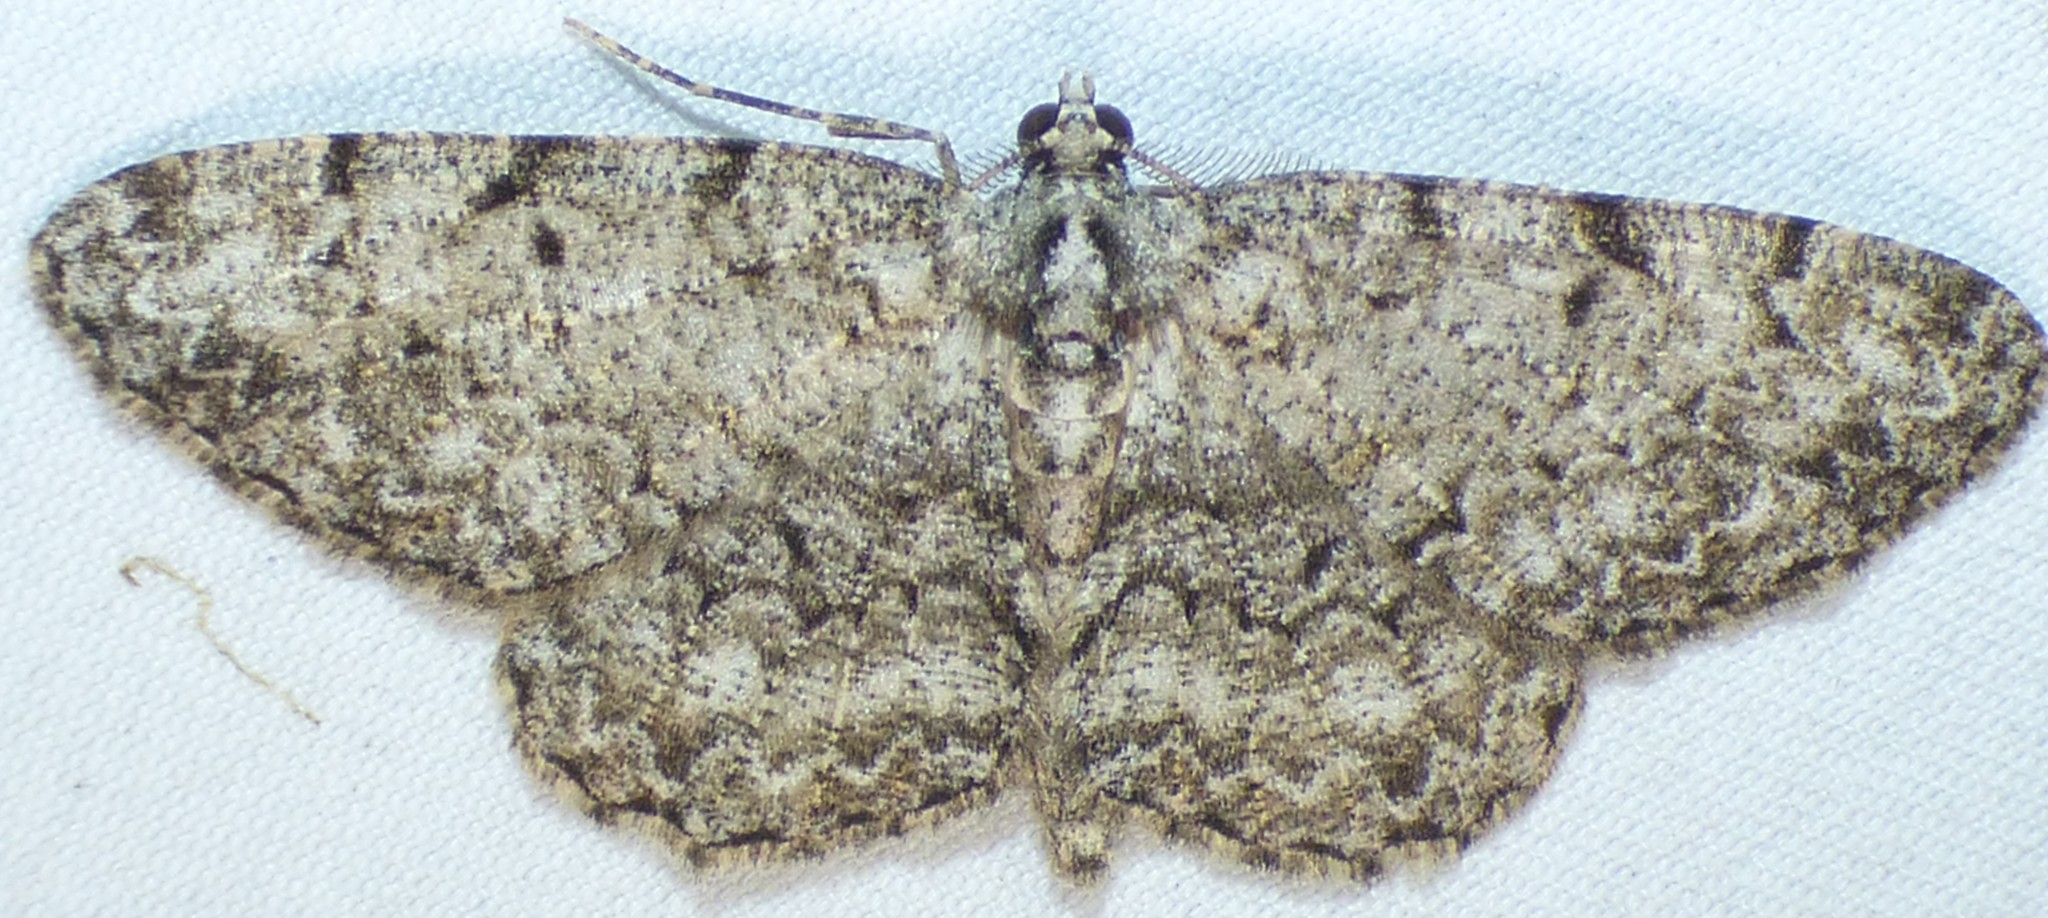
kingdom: Animalia
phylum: Arthropoda
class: Insecta
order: Lepidoptera
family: Geometridae
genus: Protoboarmia
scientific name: Protoboarmia porcelaria
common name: Porcelain gray
